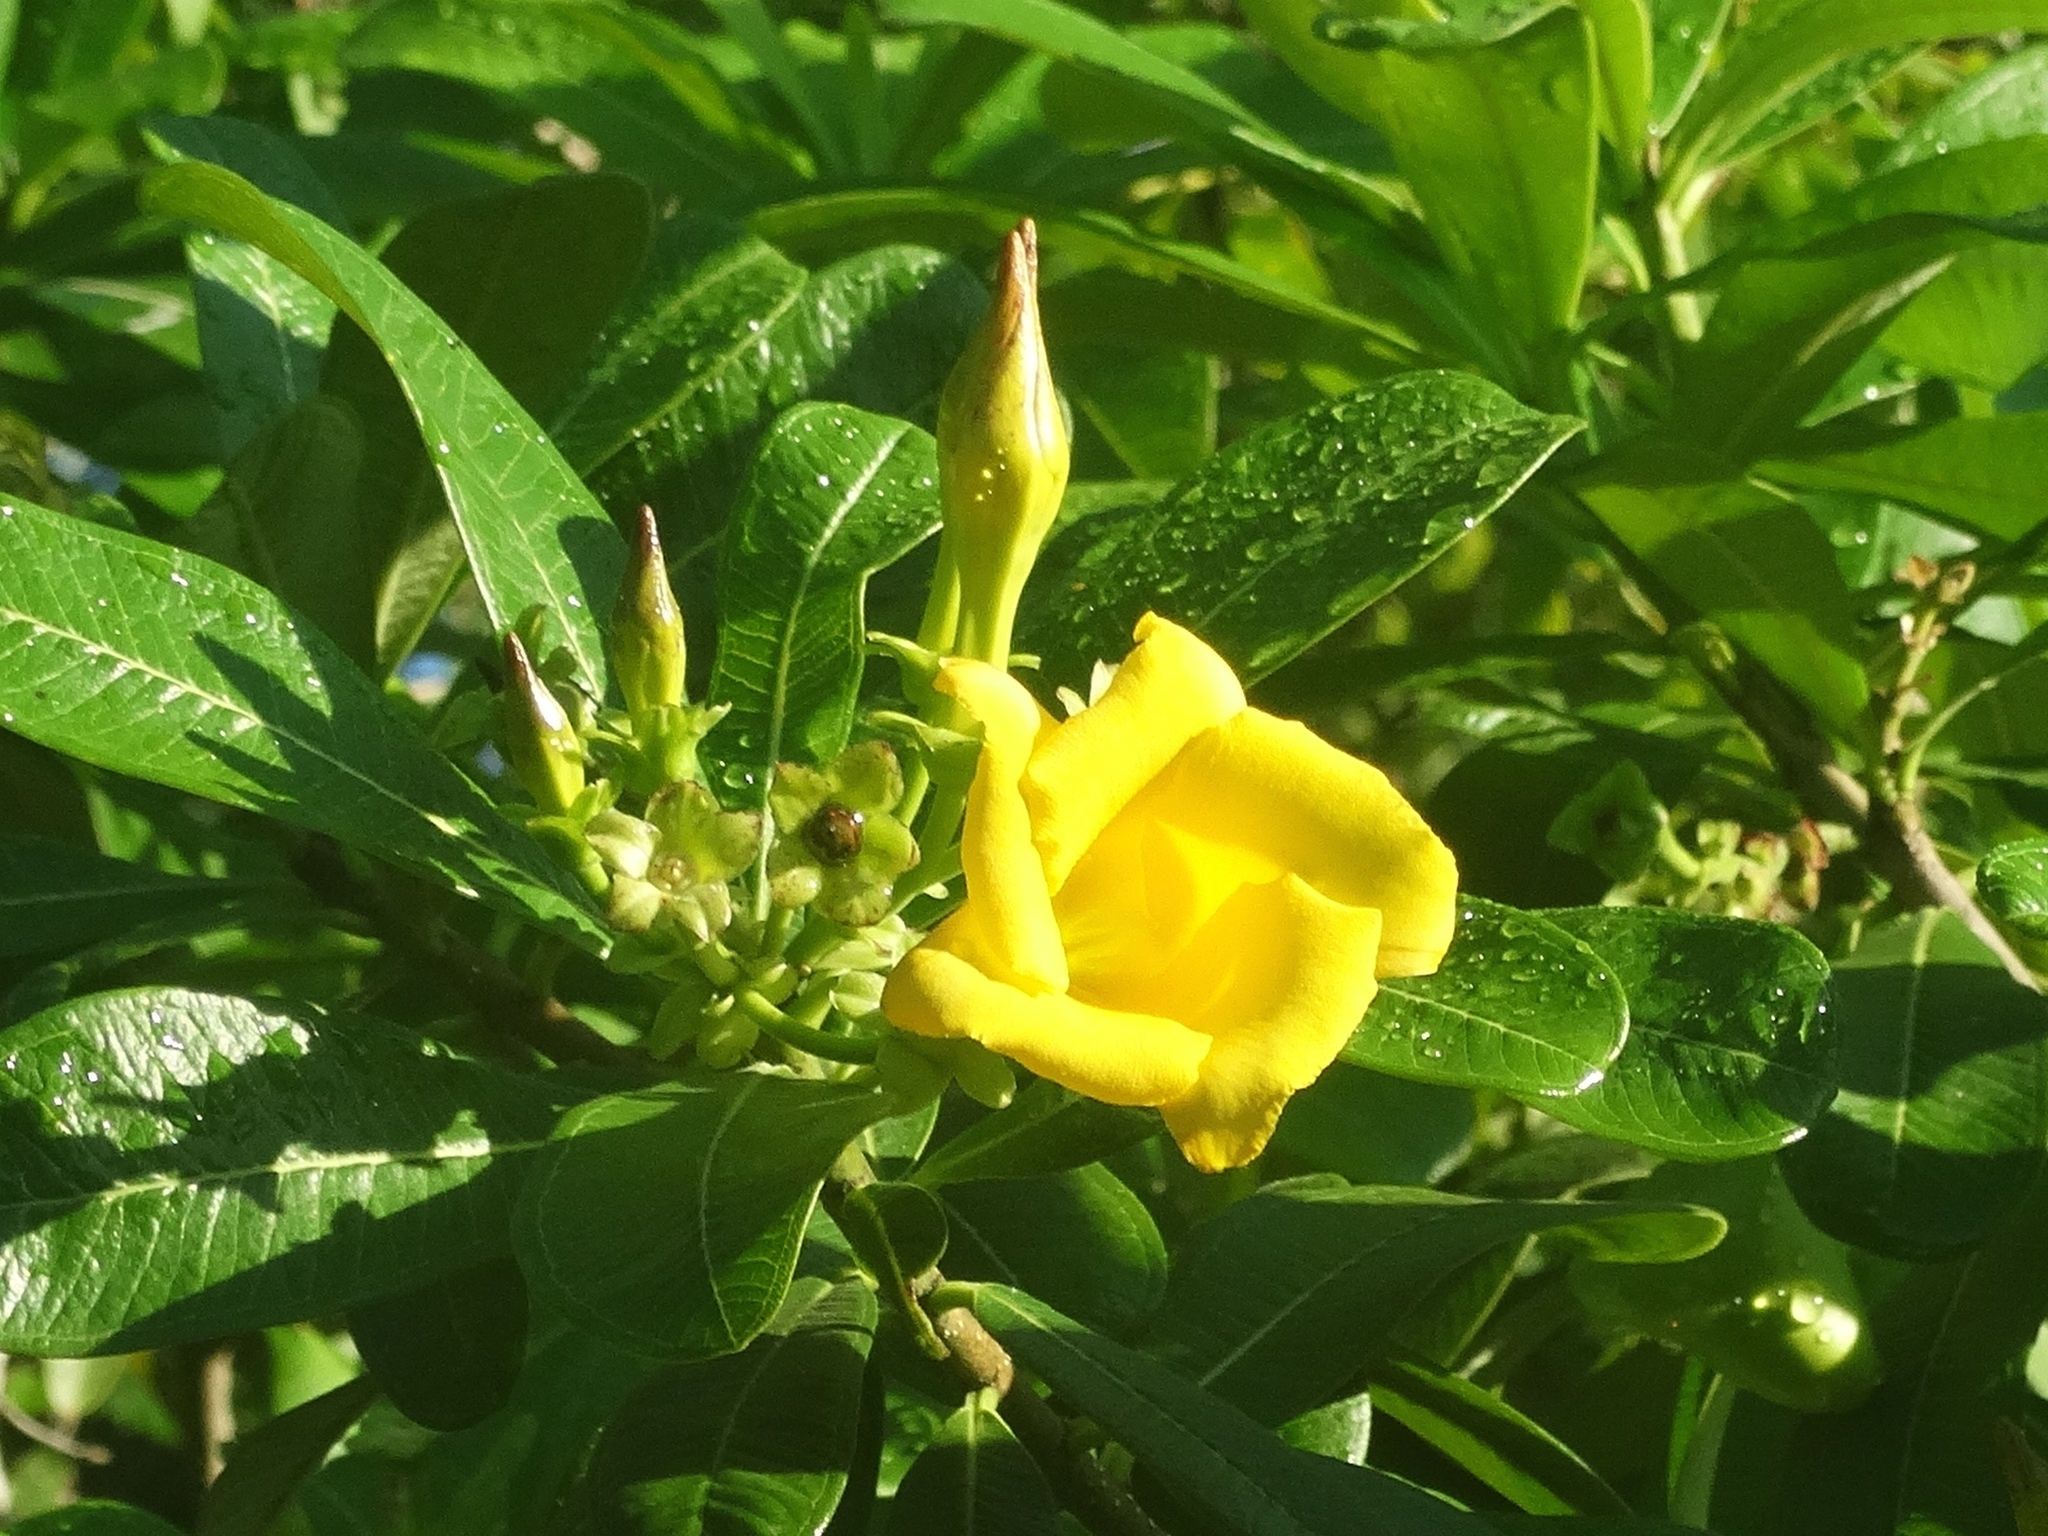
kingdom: Plantae
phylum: Tracheophyta
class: Magnoliopsida
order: Gentianales
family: Apocynaceae
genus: Cascabela
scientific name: Cascabela ovata
